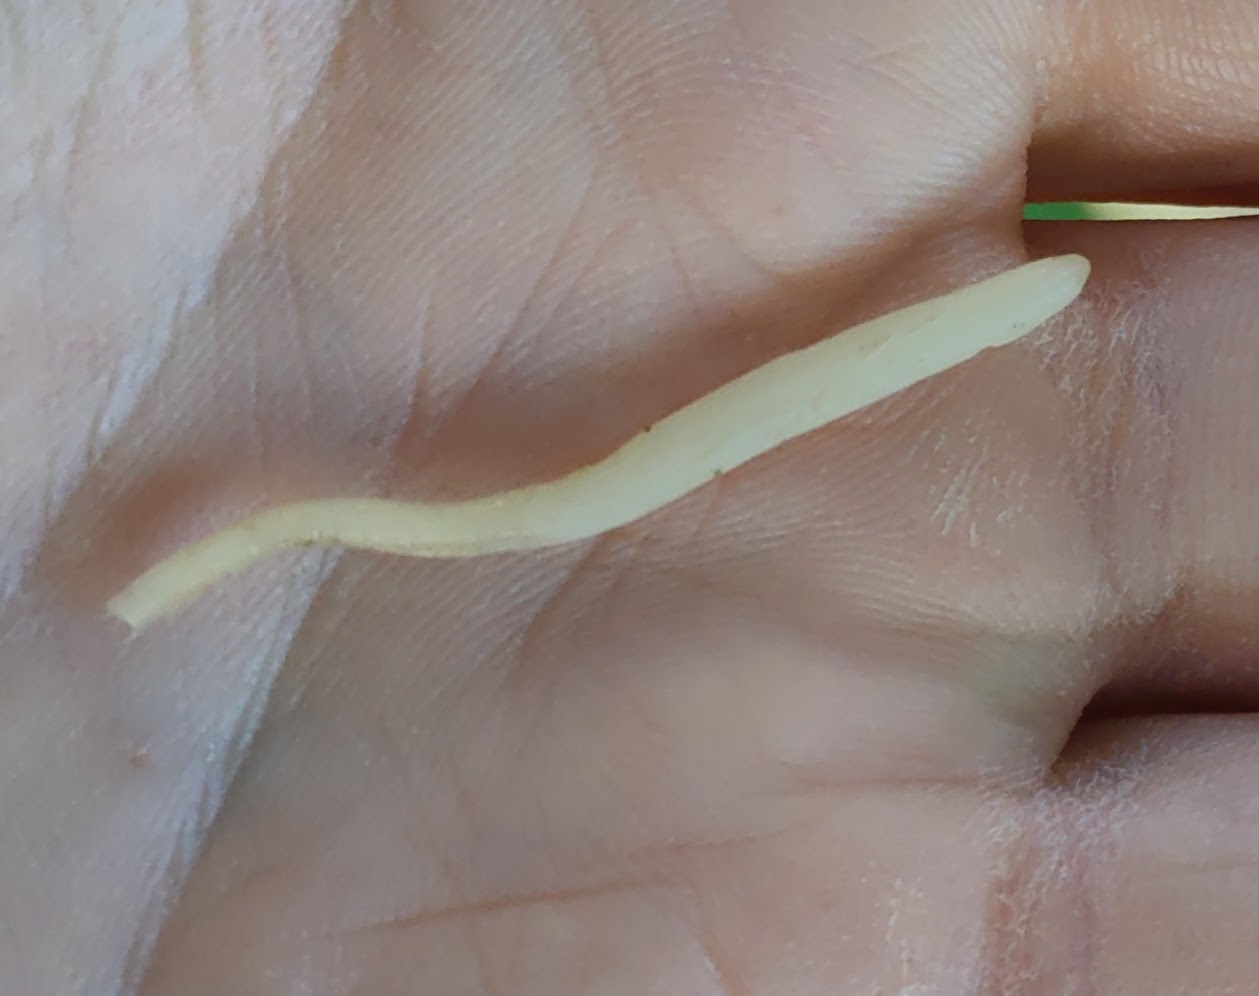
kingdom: Fungi
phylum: Basidiomycota
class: Agaricomycetes
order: Agaricales
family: Clavariaceae
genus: Clavaria
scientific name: Clavaria acuta
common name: Pointed club
